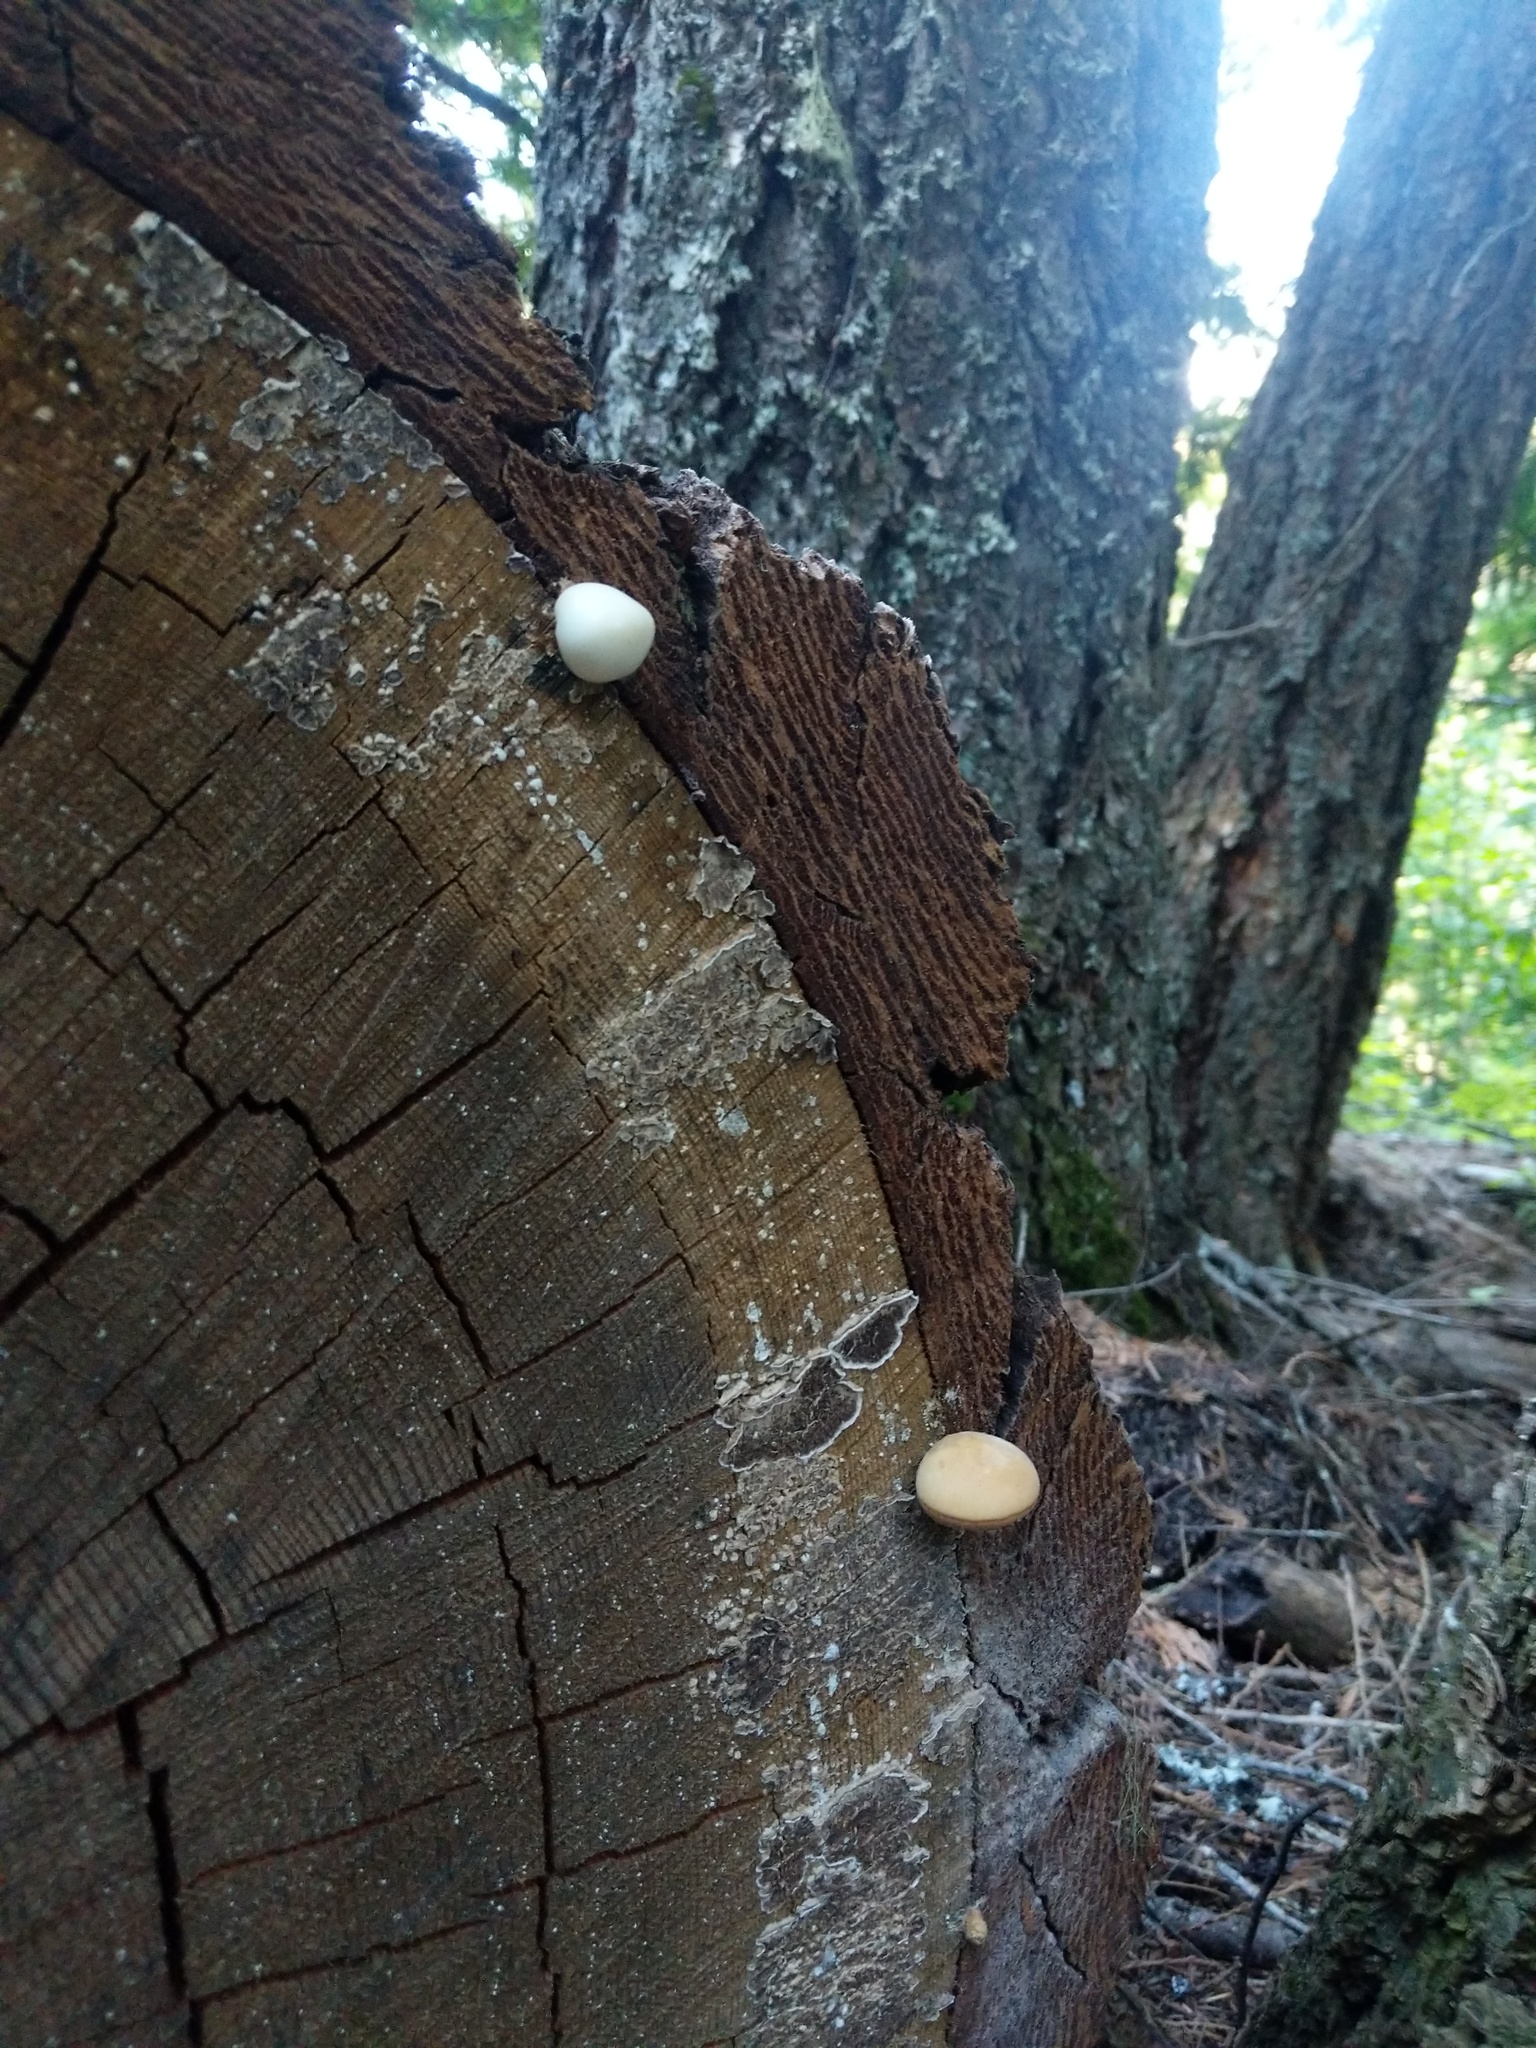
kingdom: Fungi
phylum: Basidiomycota
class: Agaricomycetes
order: Polyporales
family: Polyporaceae
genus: Cryptoporus
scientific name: Cryptoporus volvatus
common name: Veiled polypore
